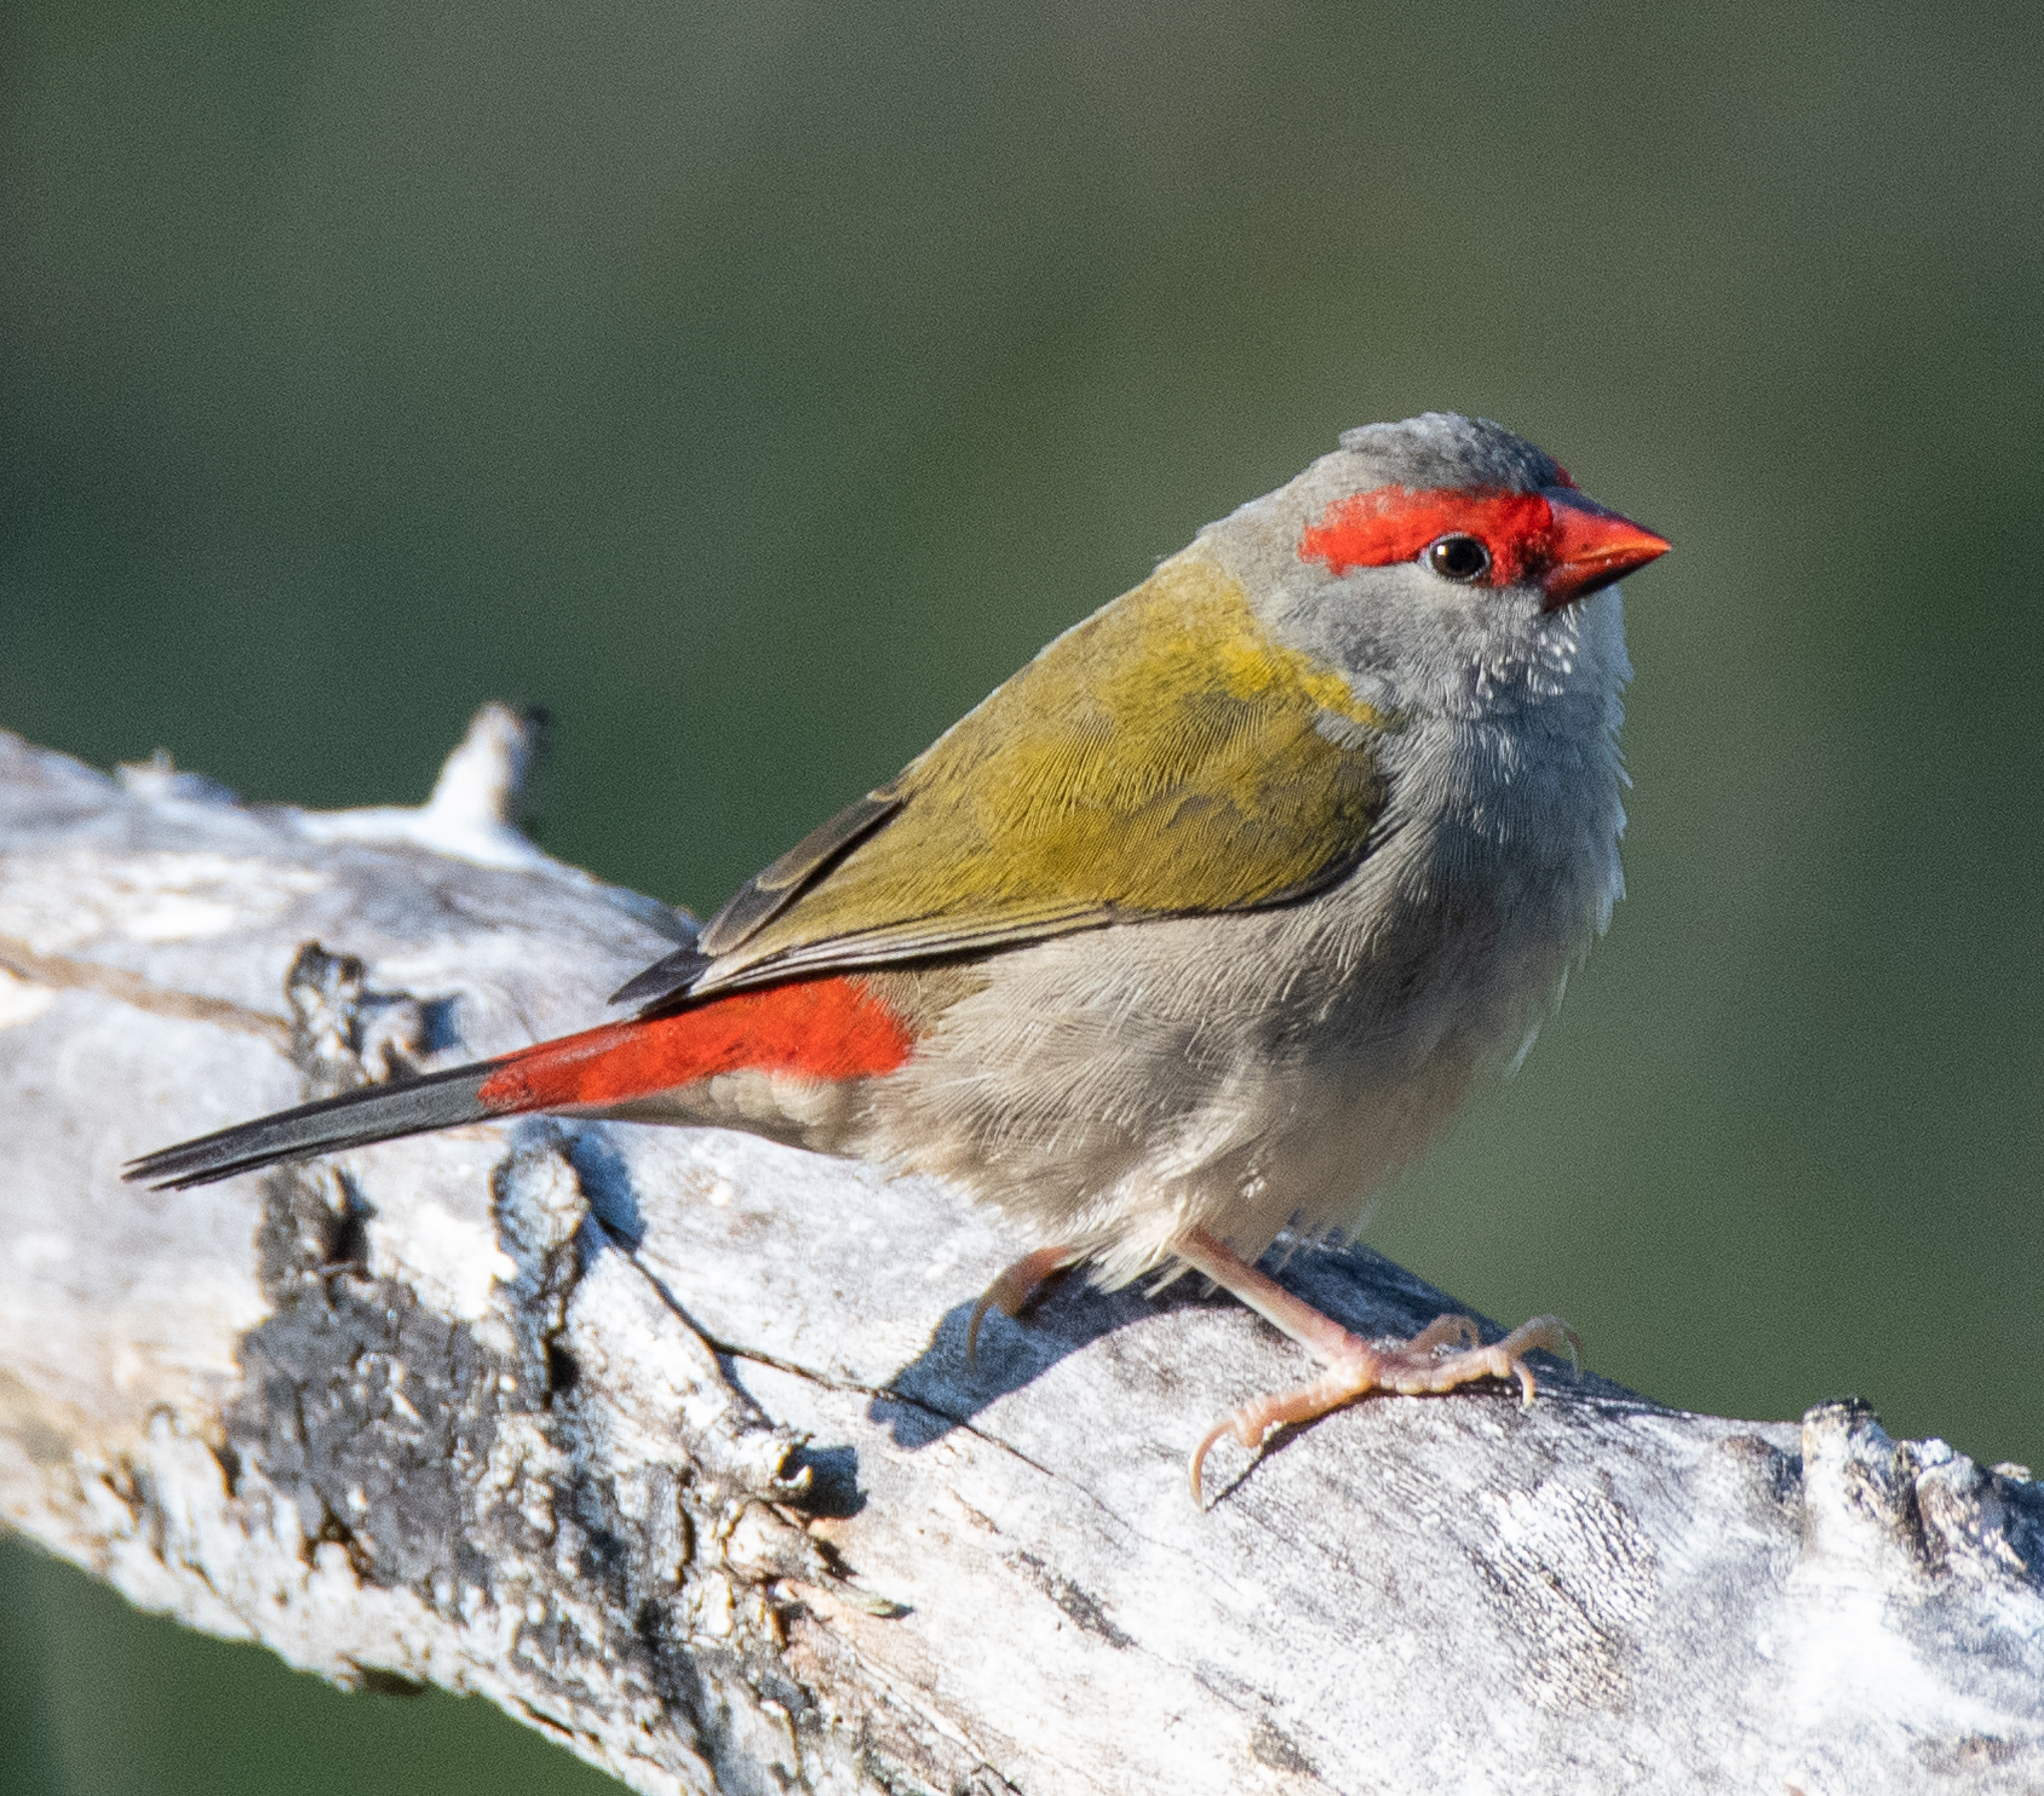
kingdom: Animalia
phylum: Chordata
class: Aves
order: Passeriformes
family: Estrildidae
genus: Neochmia
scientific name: Neochmia temporalis
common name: Red-browed finch
